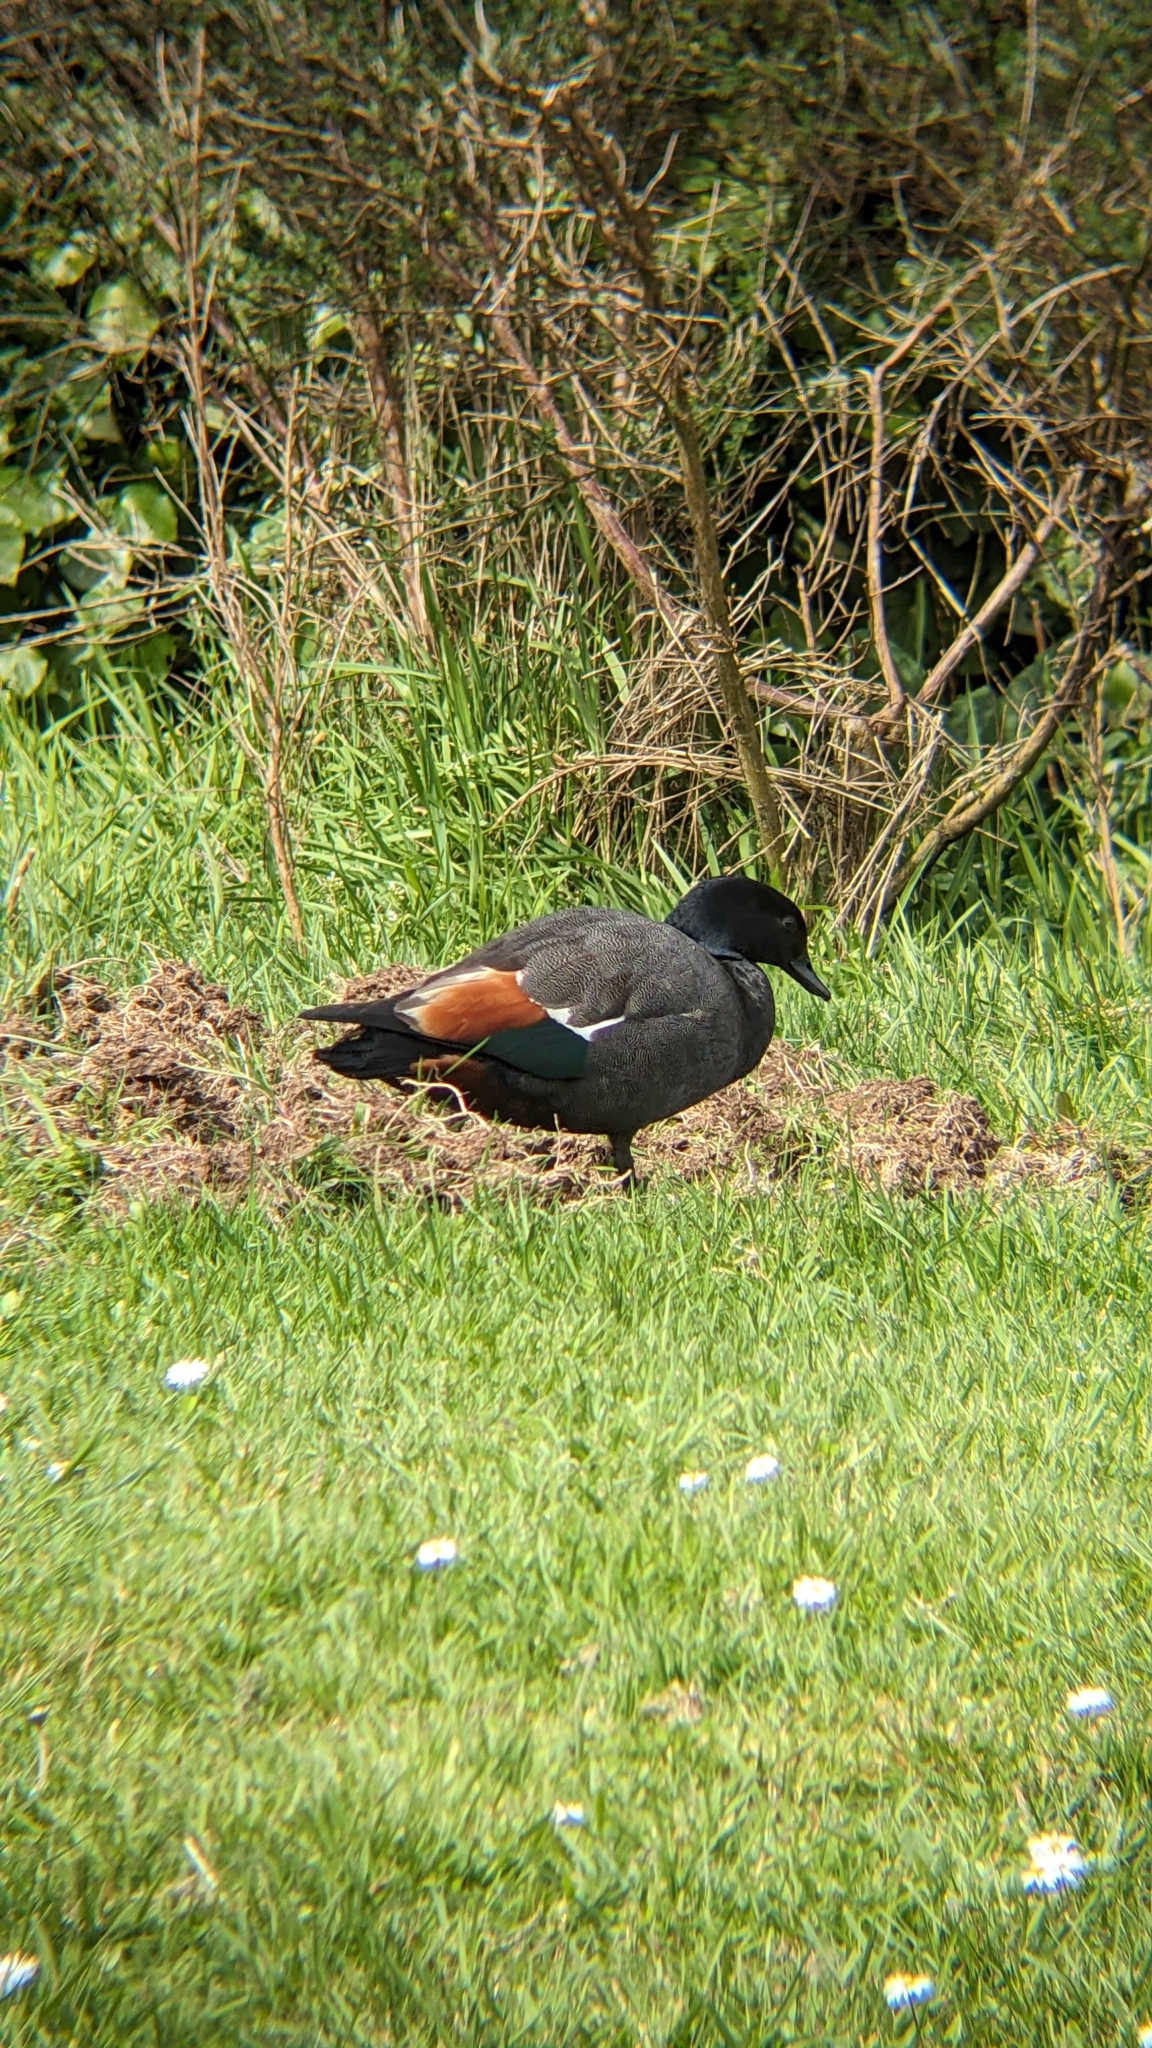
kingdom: Animalia
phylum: Chordata
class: Aves
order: Anseriformes
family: Anatidae
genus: Tadorna
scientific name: Tadorna variegata
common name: Paradise shelduck
